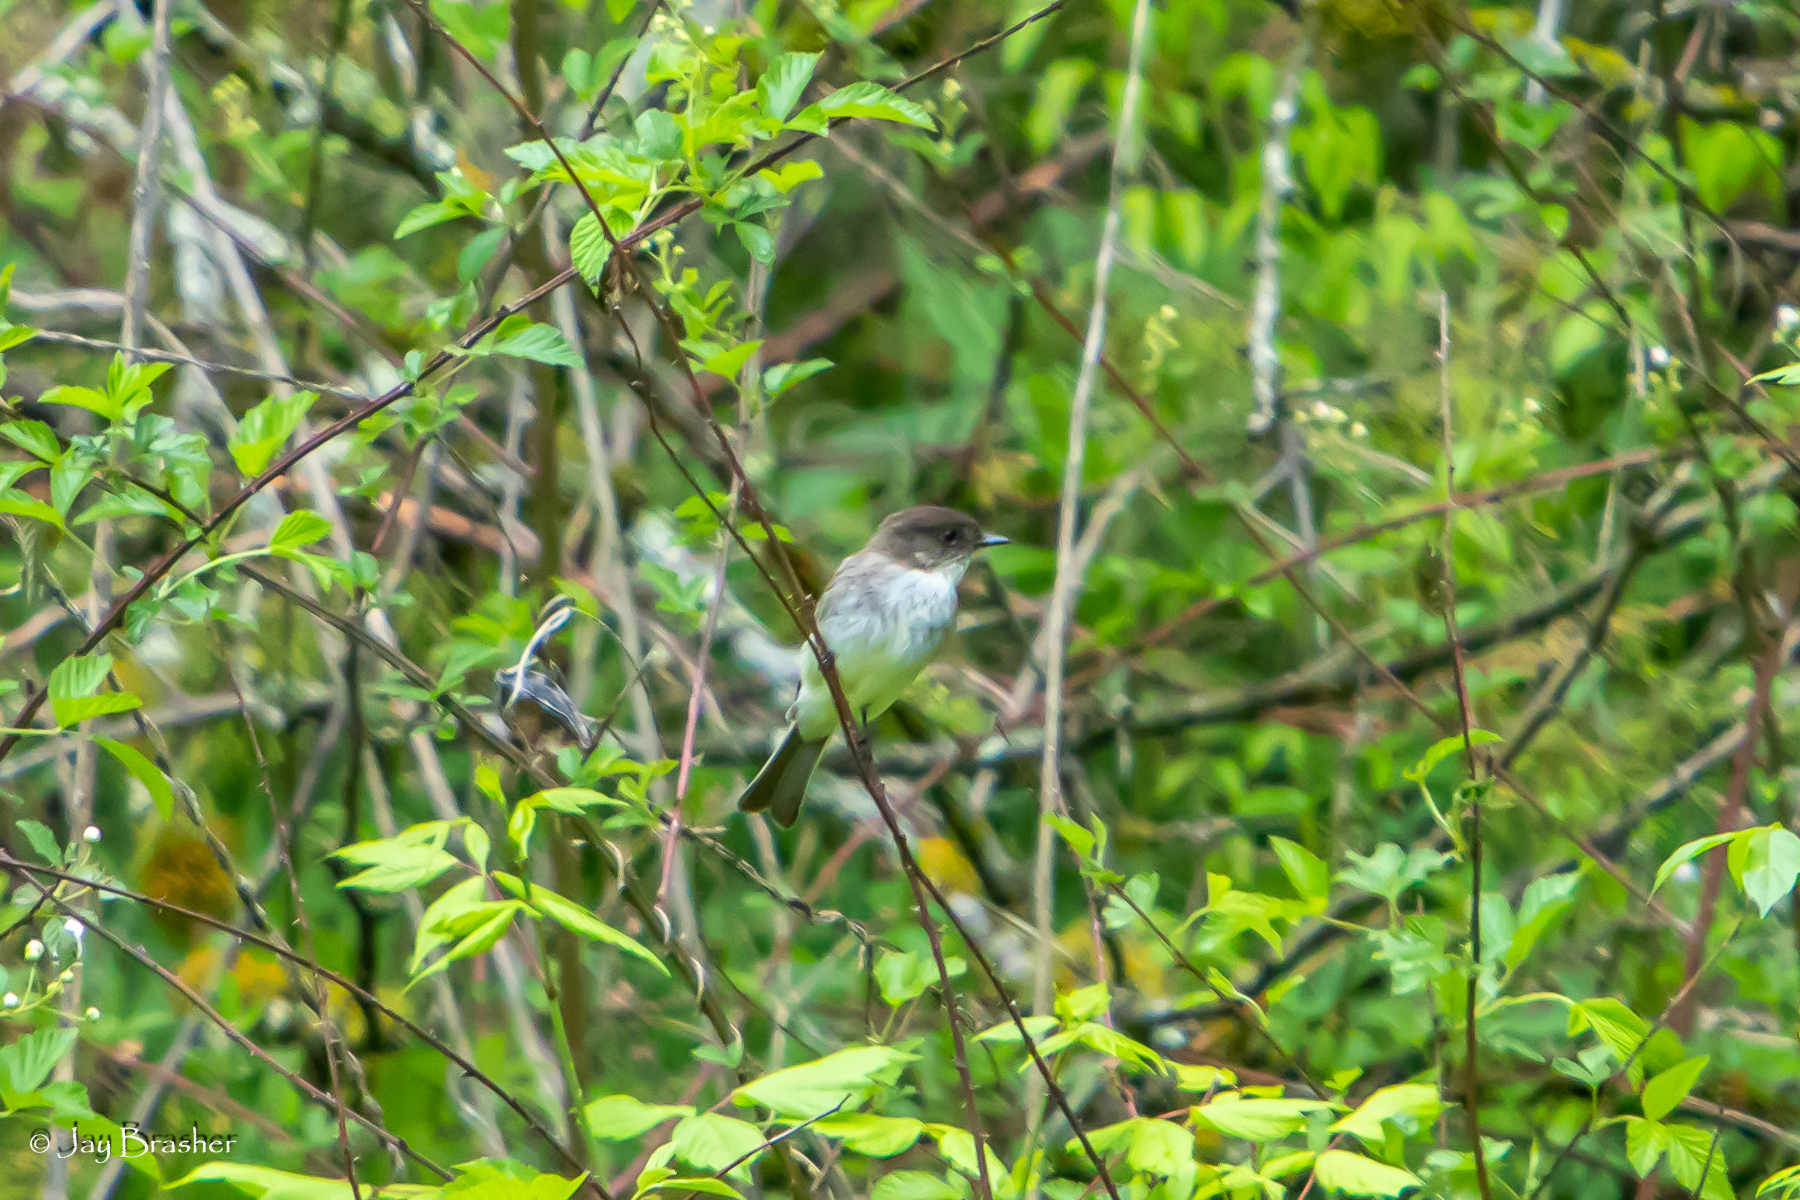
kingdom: Animalia
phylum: Chordata
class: Aves
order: Passeriformes
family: Tyrannidae
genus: Sayornis
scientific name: Sayornis phoebe
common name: Eastern phoebe
